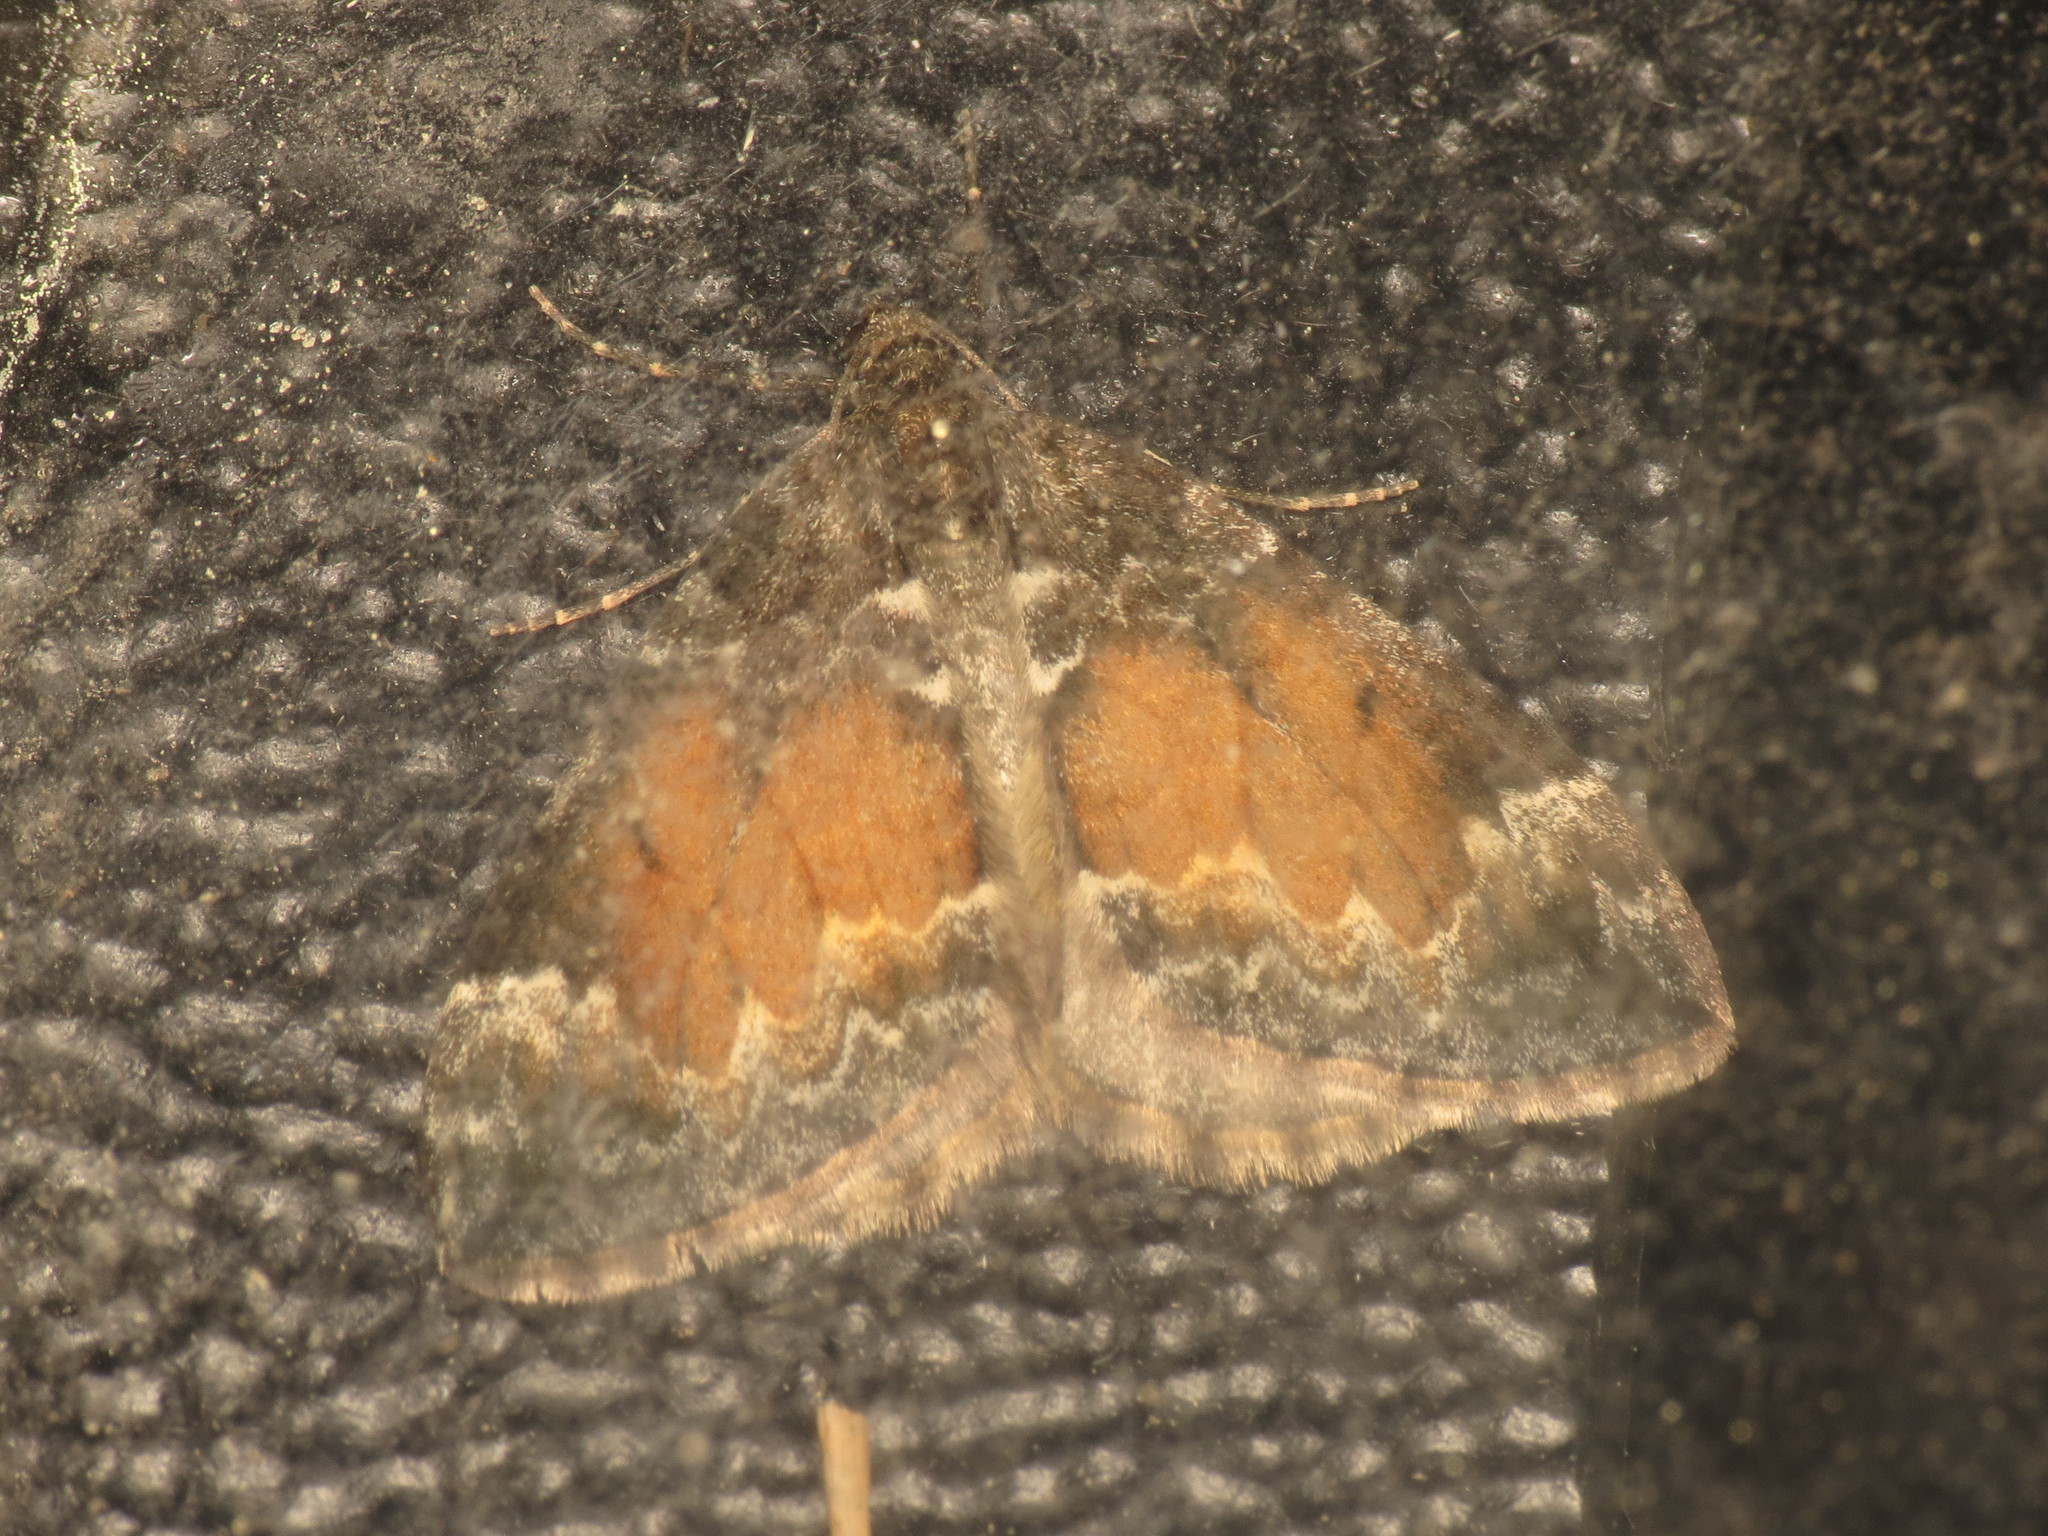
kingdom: Animalia
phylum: Arthropoda
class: Insecta
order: Lepidoptera
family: Geometridae
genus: Dysstroma
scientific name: Dysstroma truncata
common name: Common marbled carpet
